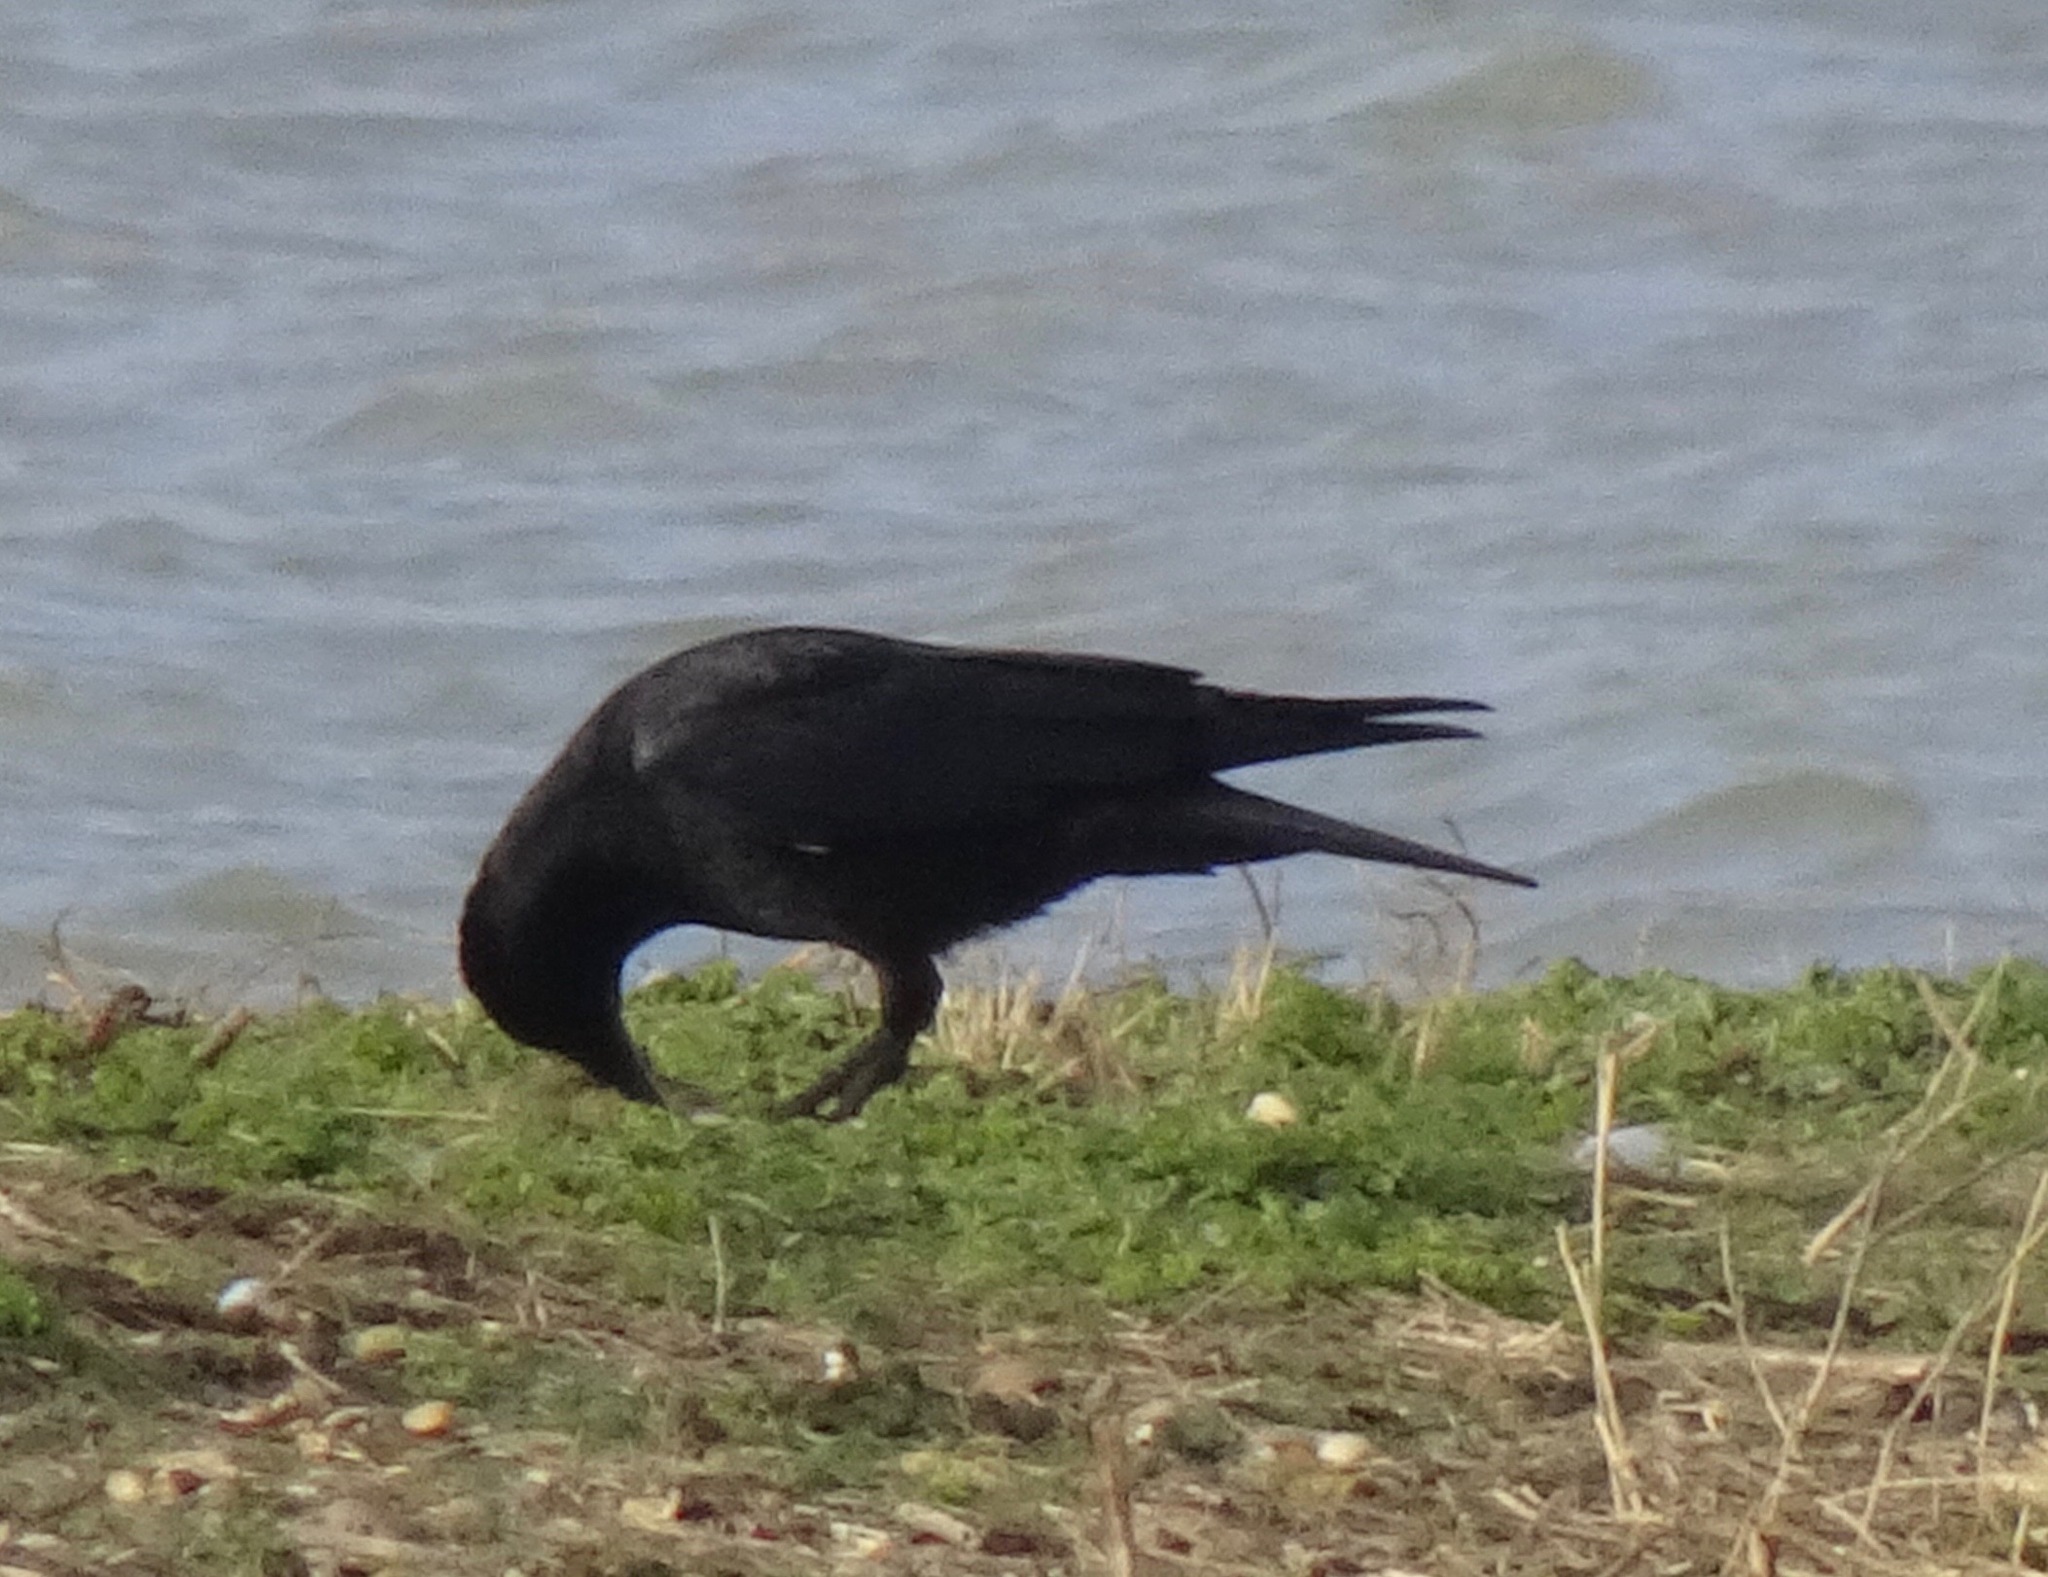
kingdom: Animalia
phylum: Chordata
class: Aves
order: Passeriformes
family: Corvidae
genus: Corvus
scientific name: Corvus corone
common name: Carrion crow
